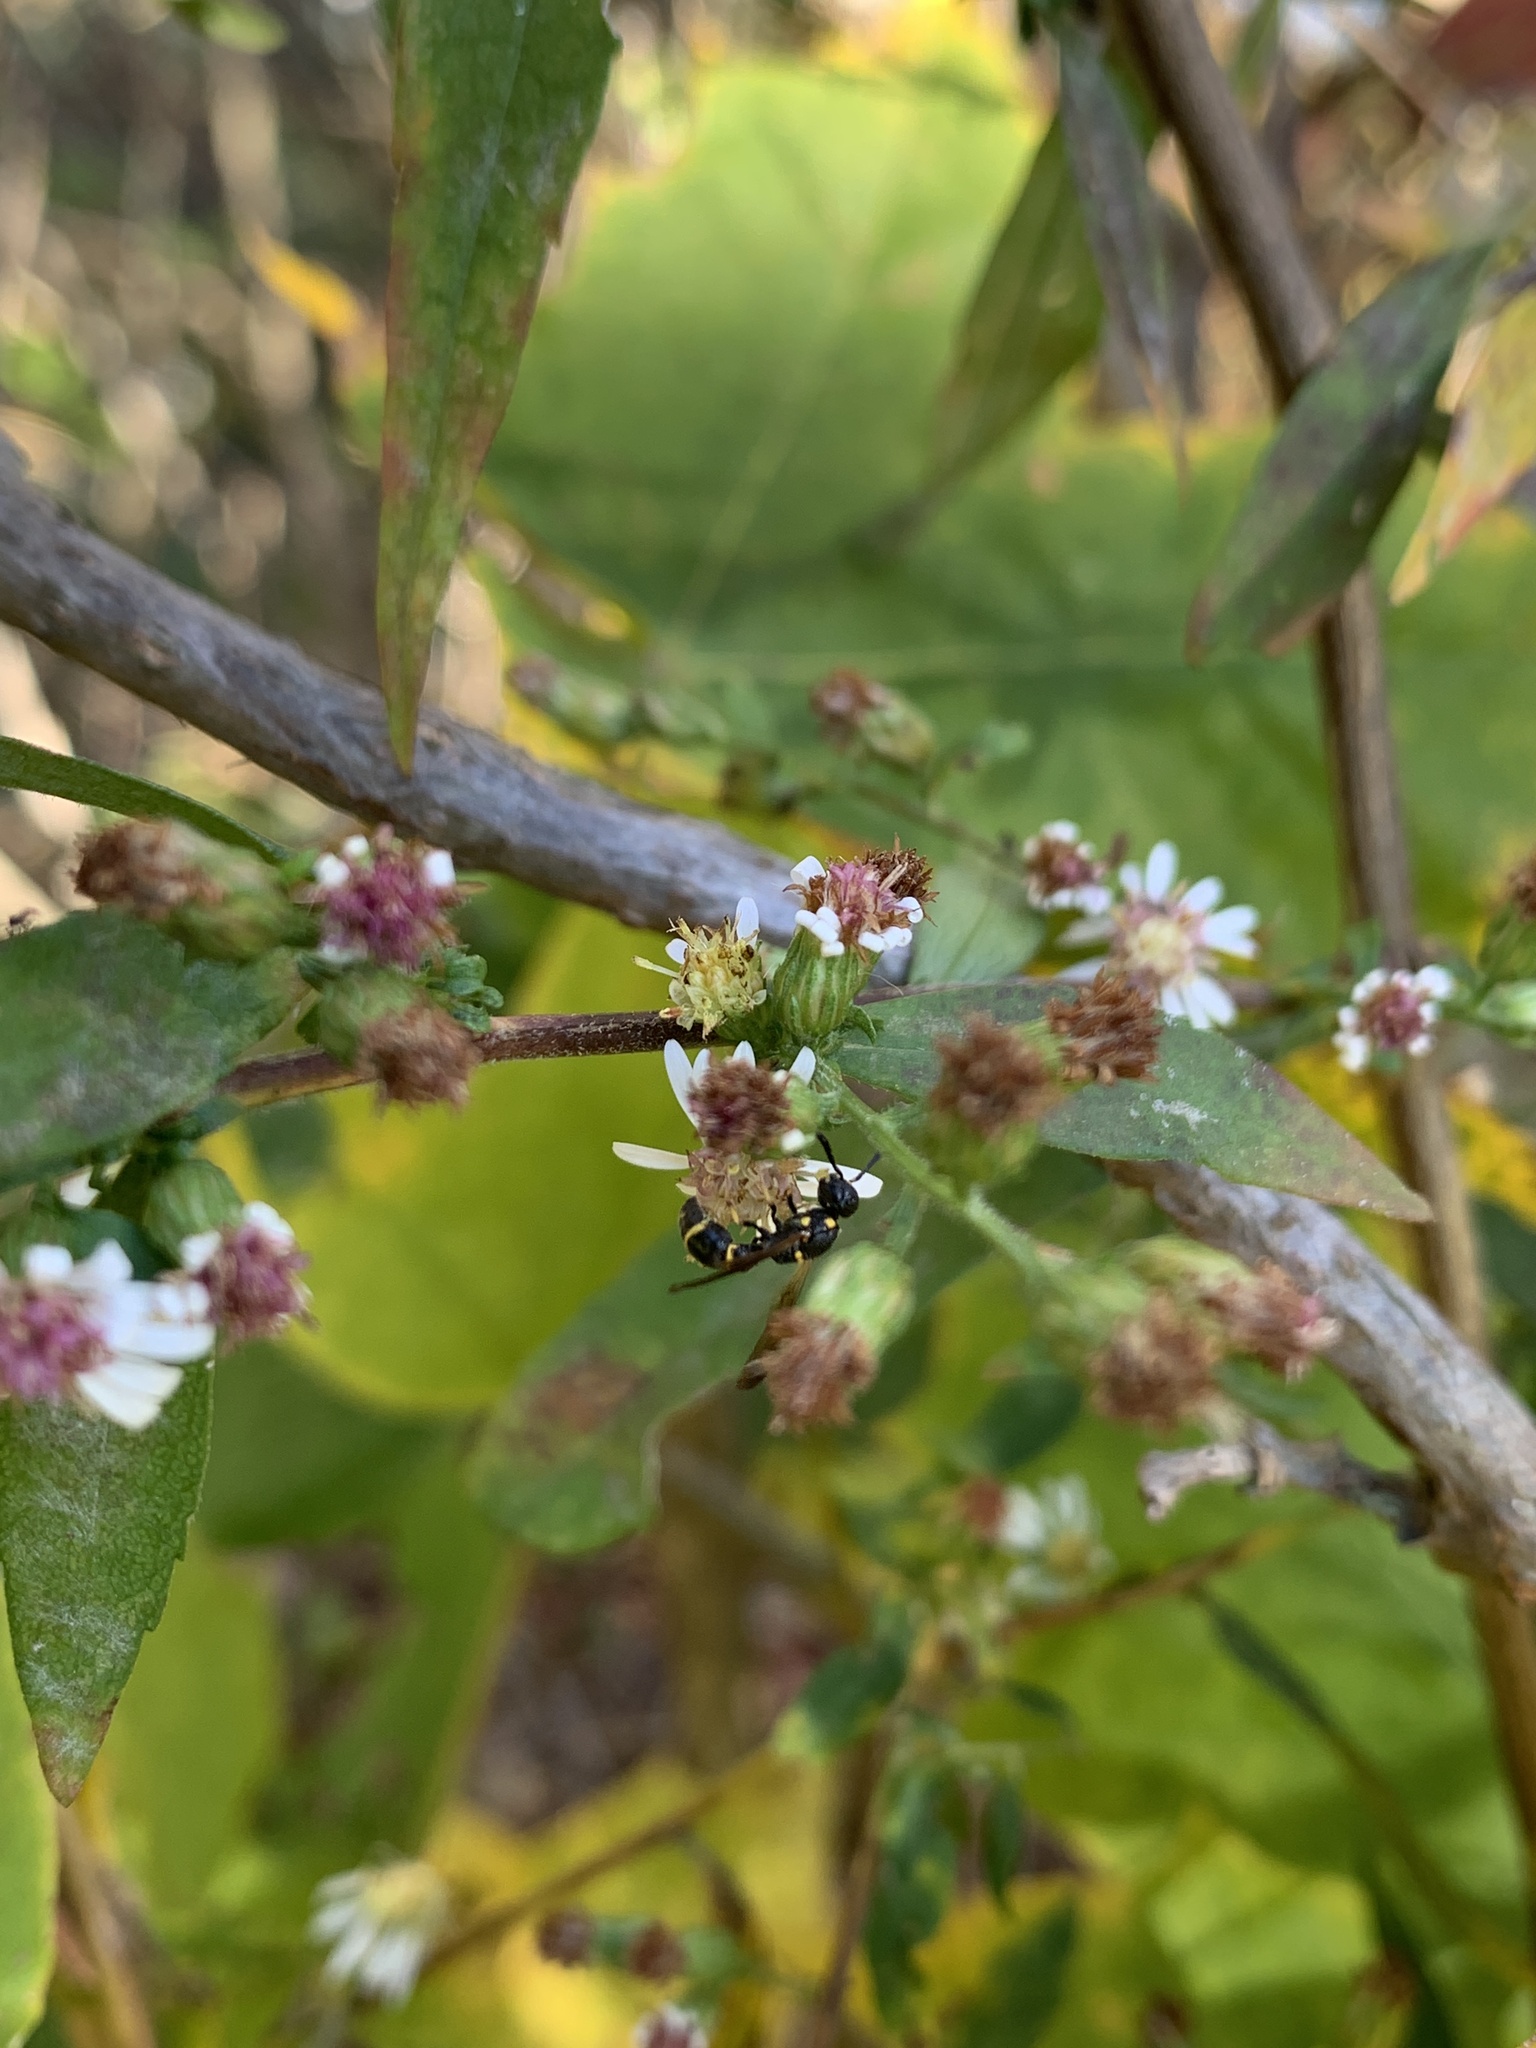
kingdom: Animalia
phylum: Arthropoda
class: Insecta
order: Hymenoptera
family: Eumenidae
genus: Symmorphus
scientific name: Symmorphus
